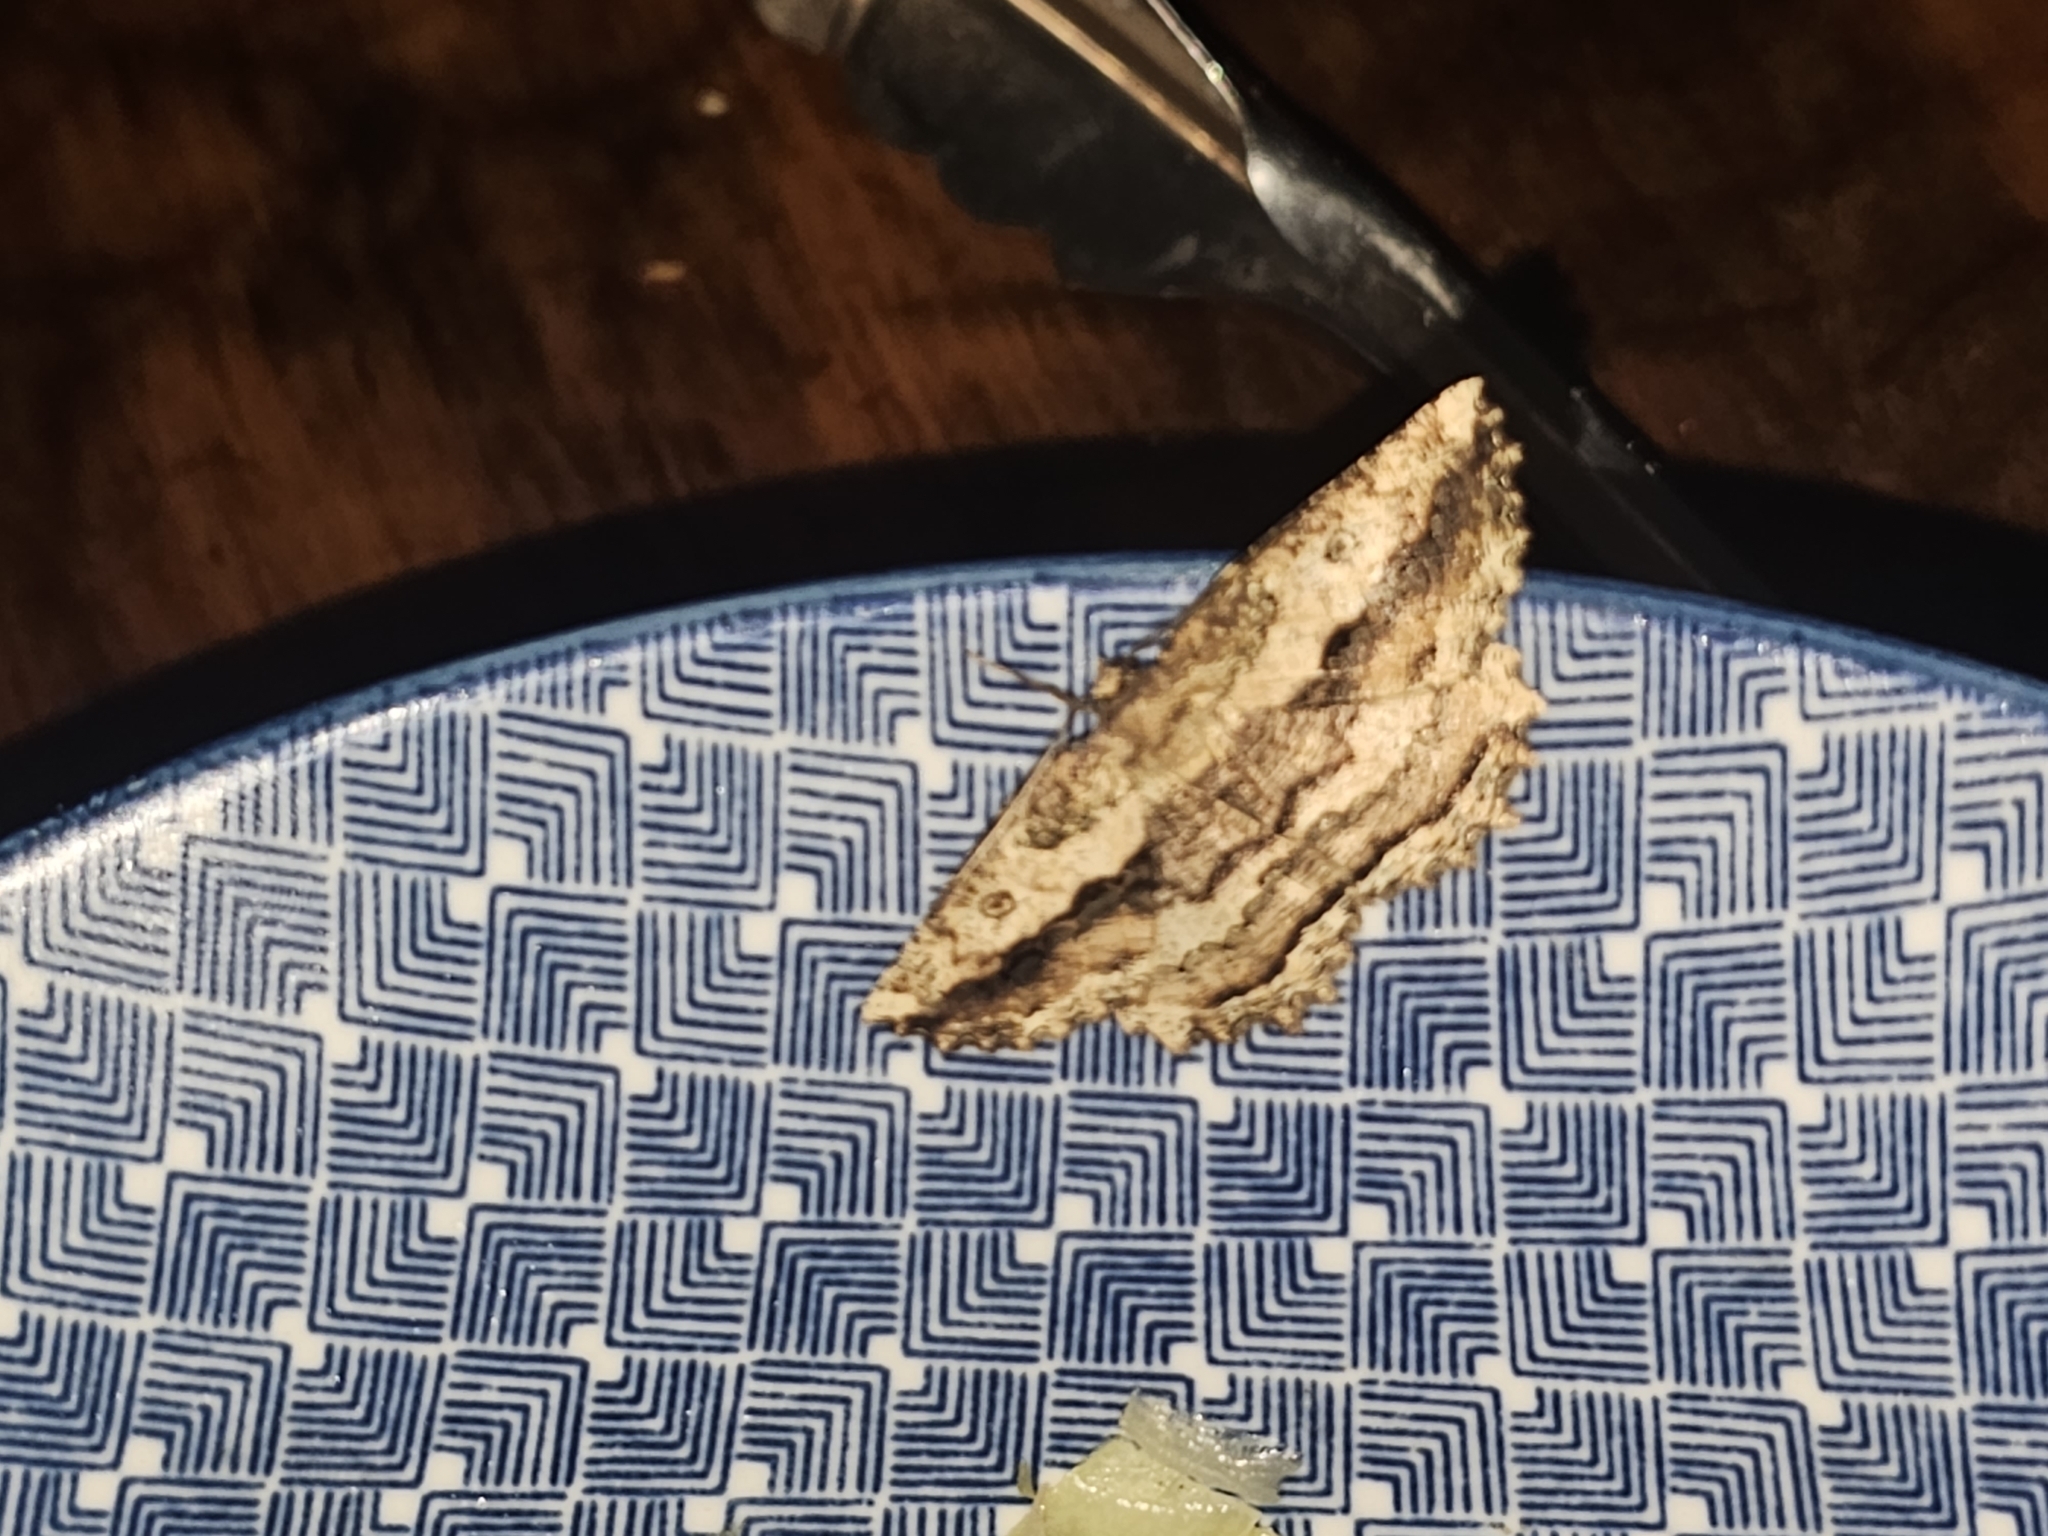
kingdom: Animalia
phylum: Arthropoda
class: Insecta
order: Lepidoptera
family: Geometridae
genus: Gellonia
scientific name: Gellonia pannularia
